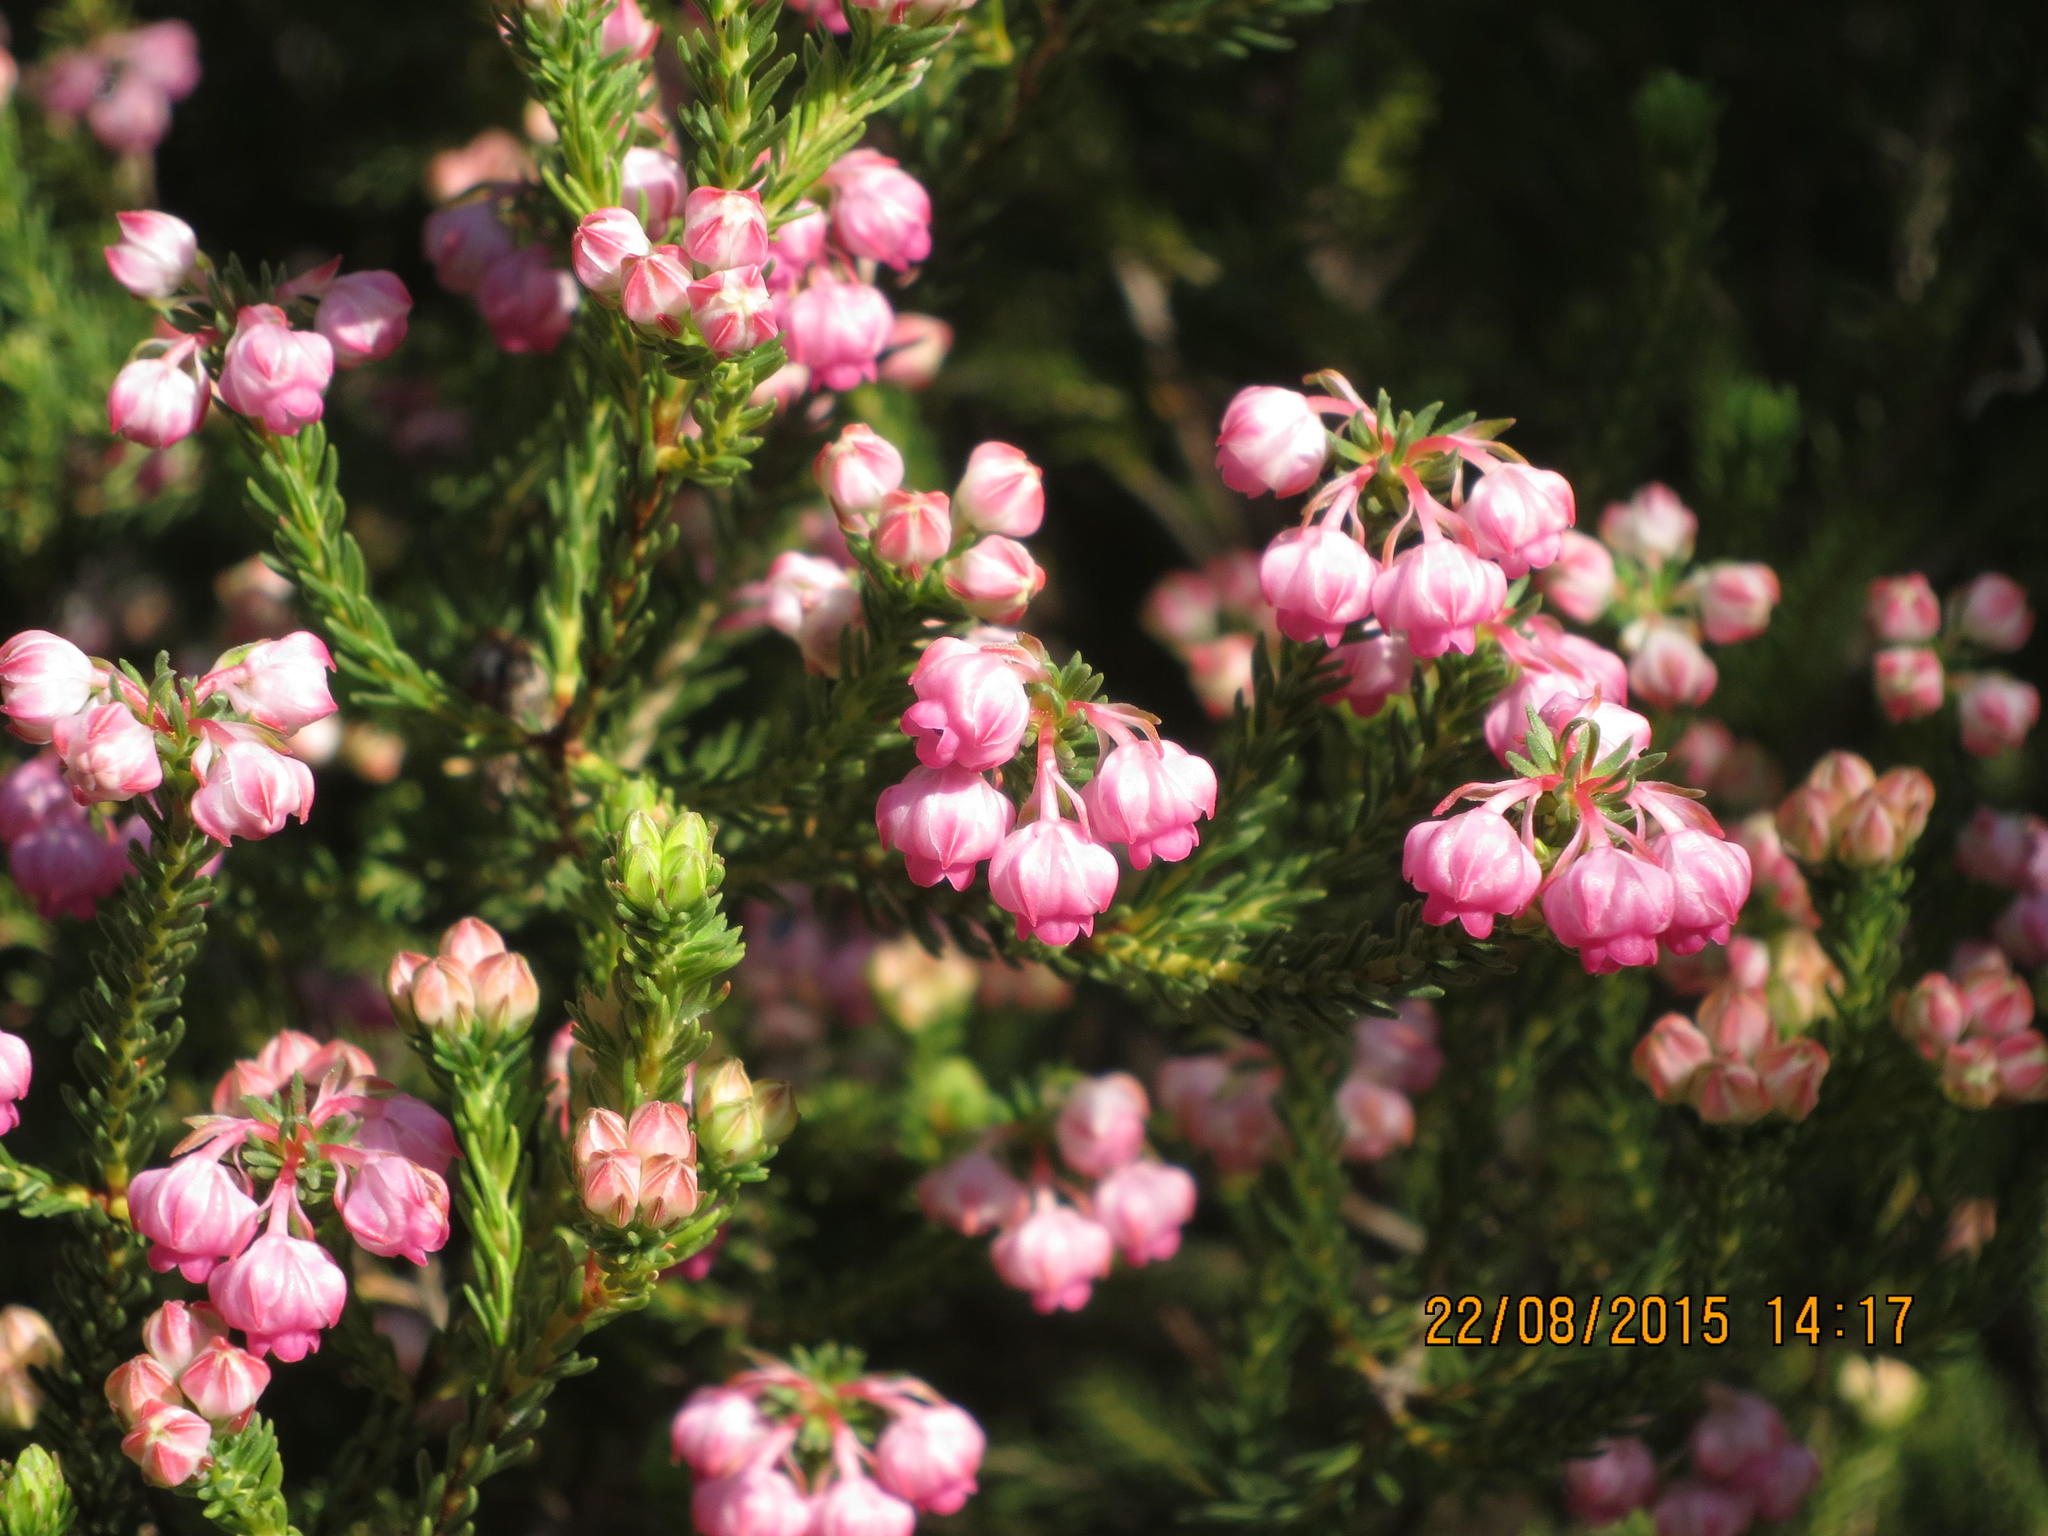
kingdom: Plantae
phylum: Tracheophyta
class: Magnoliopsida
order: Ericales
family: Ericaceae
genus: Erica
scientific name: Erica baccans
